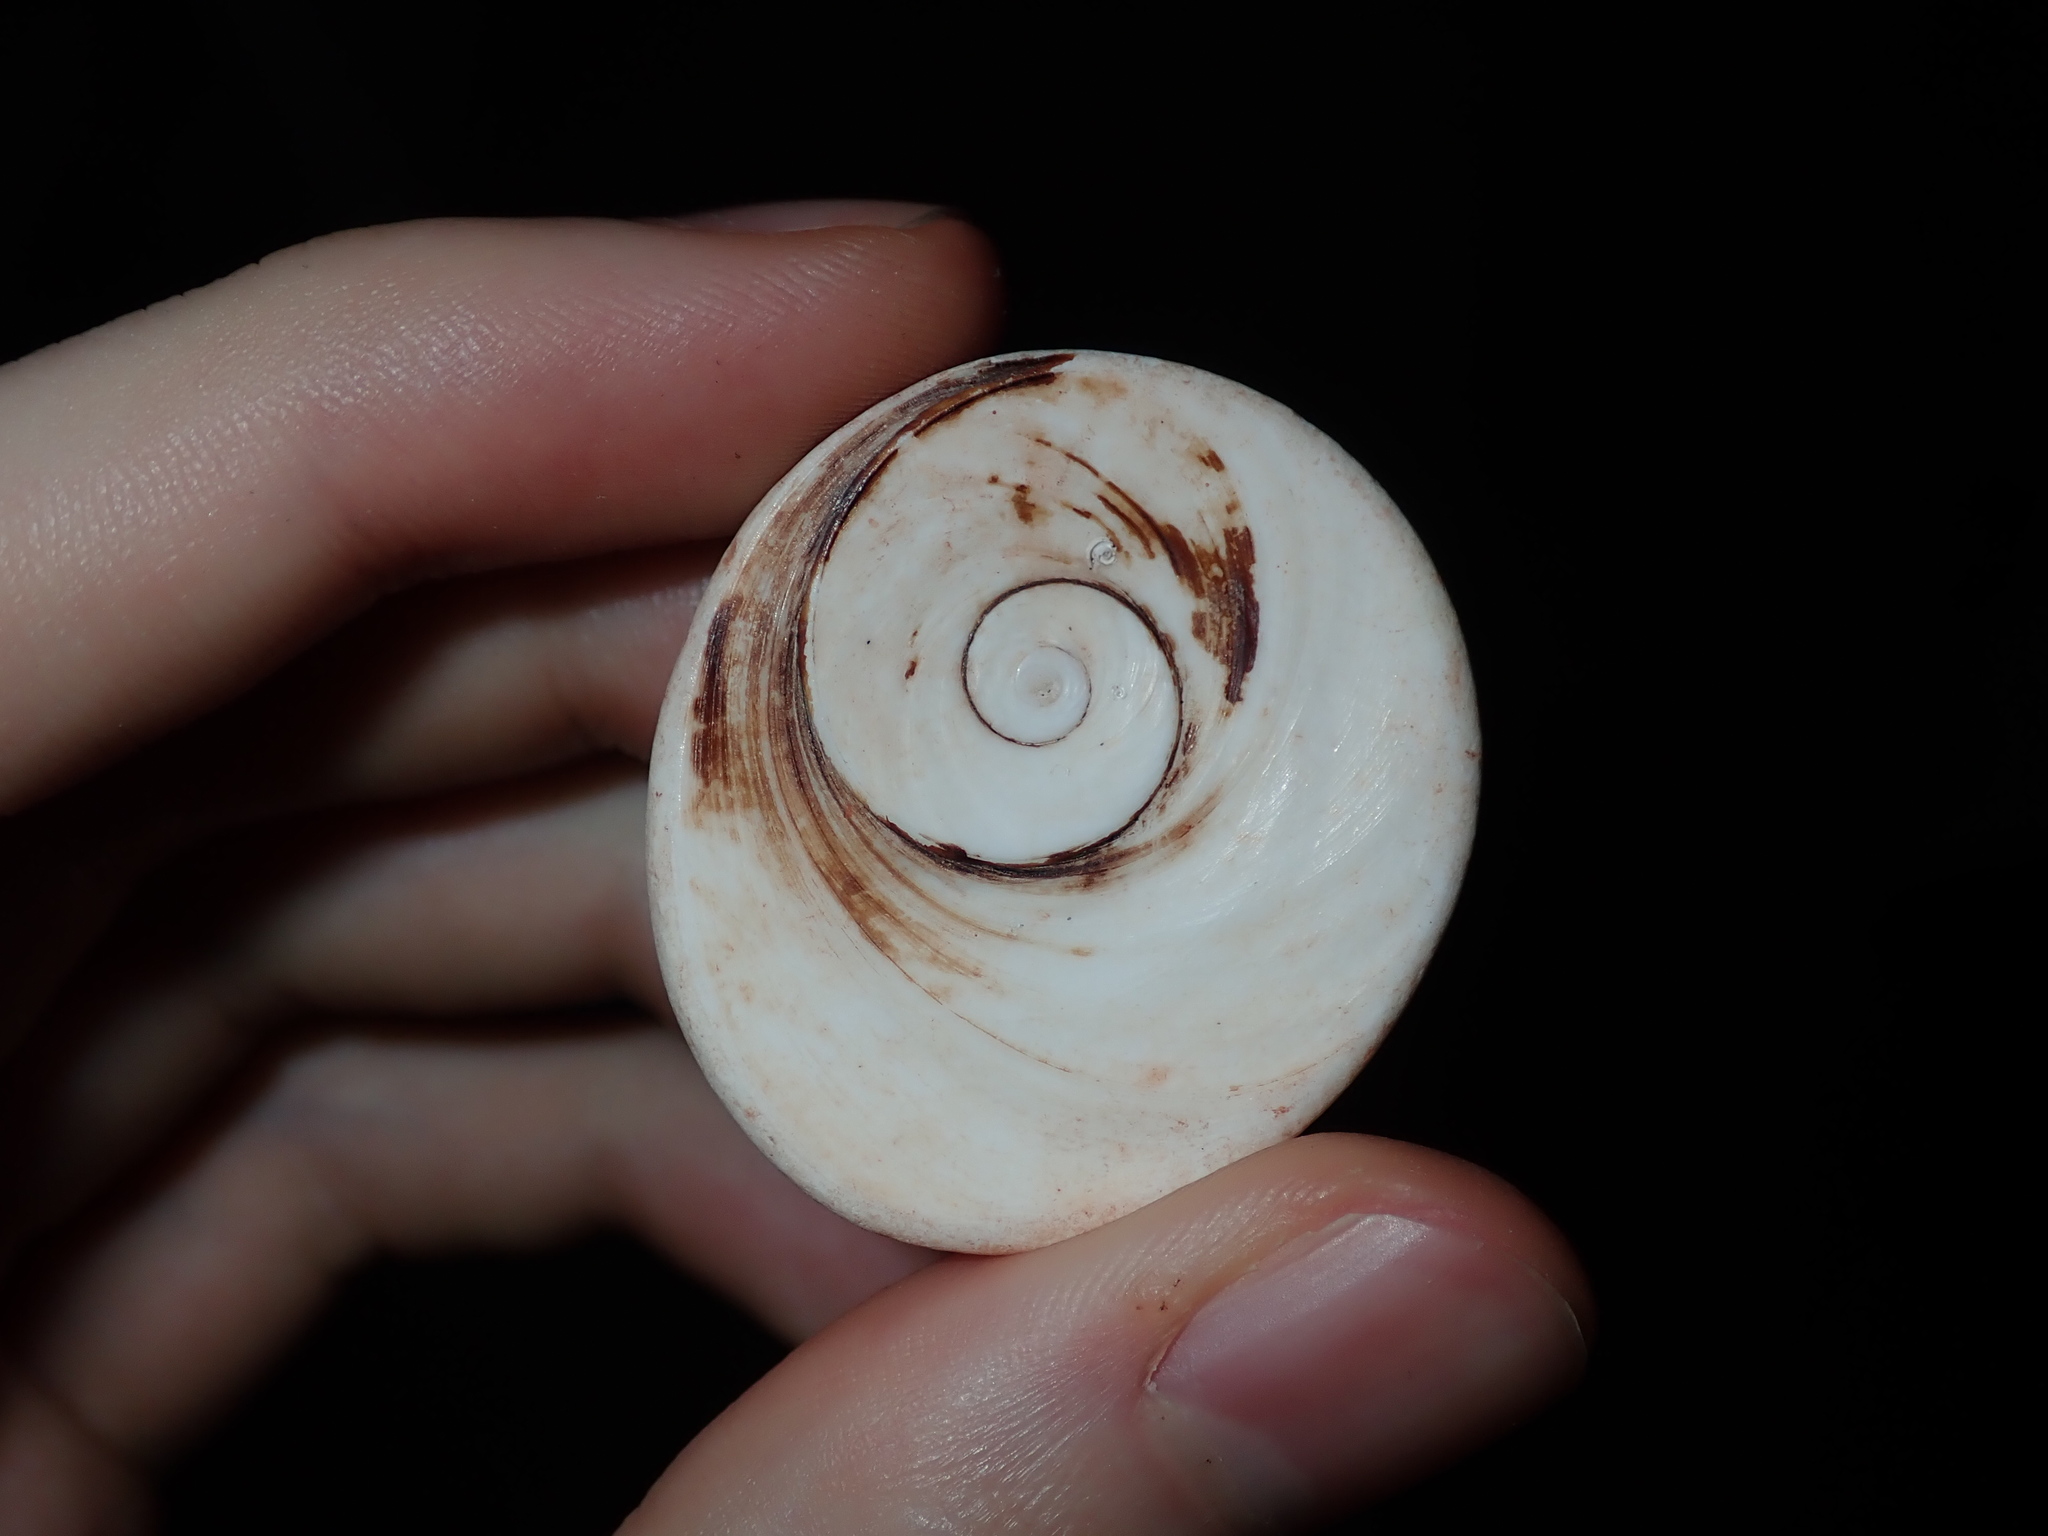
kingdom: Animalia
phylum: Mollusca
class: Gastropoda
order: Trochida
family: Turbinidae
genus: Turbo
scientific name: Turbo militaris
